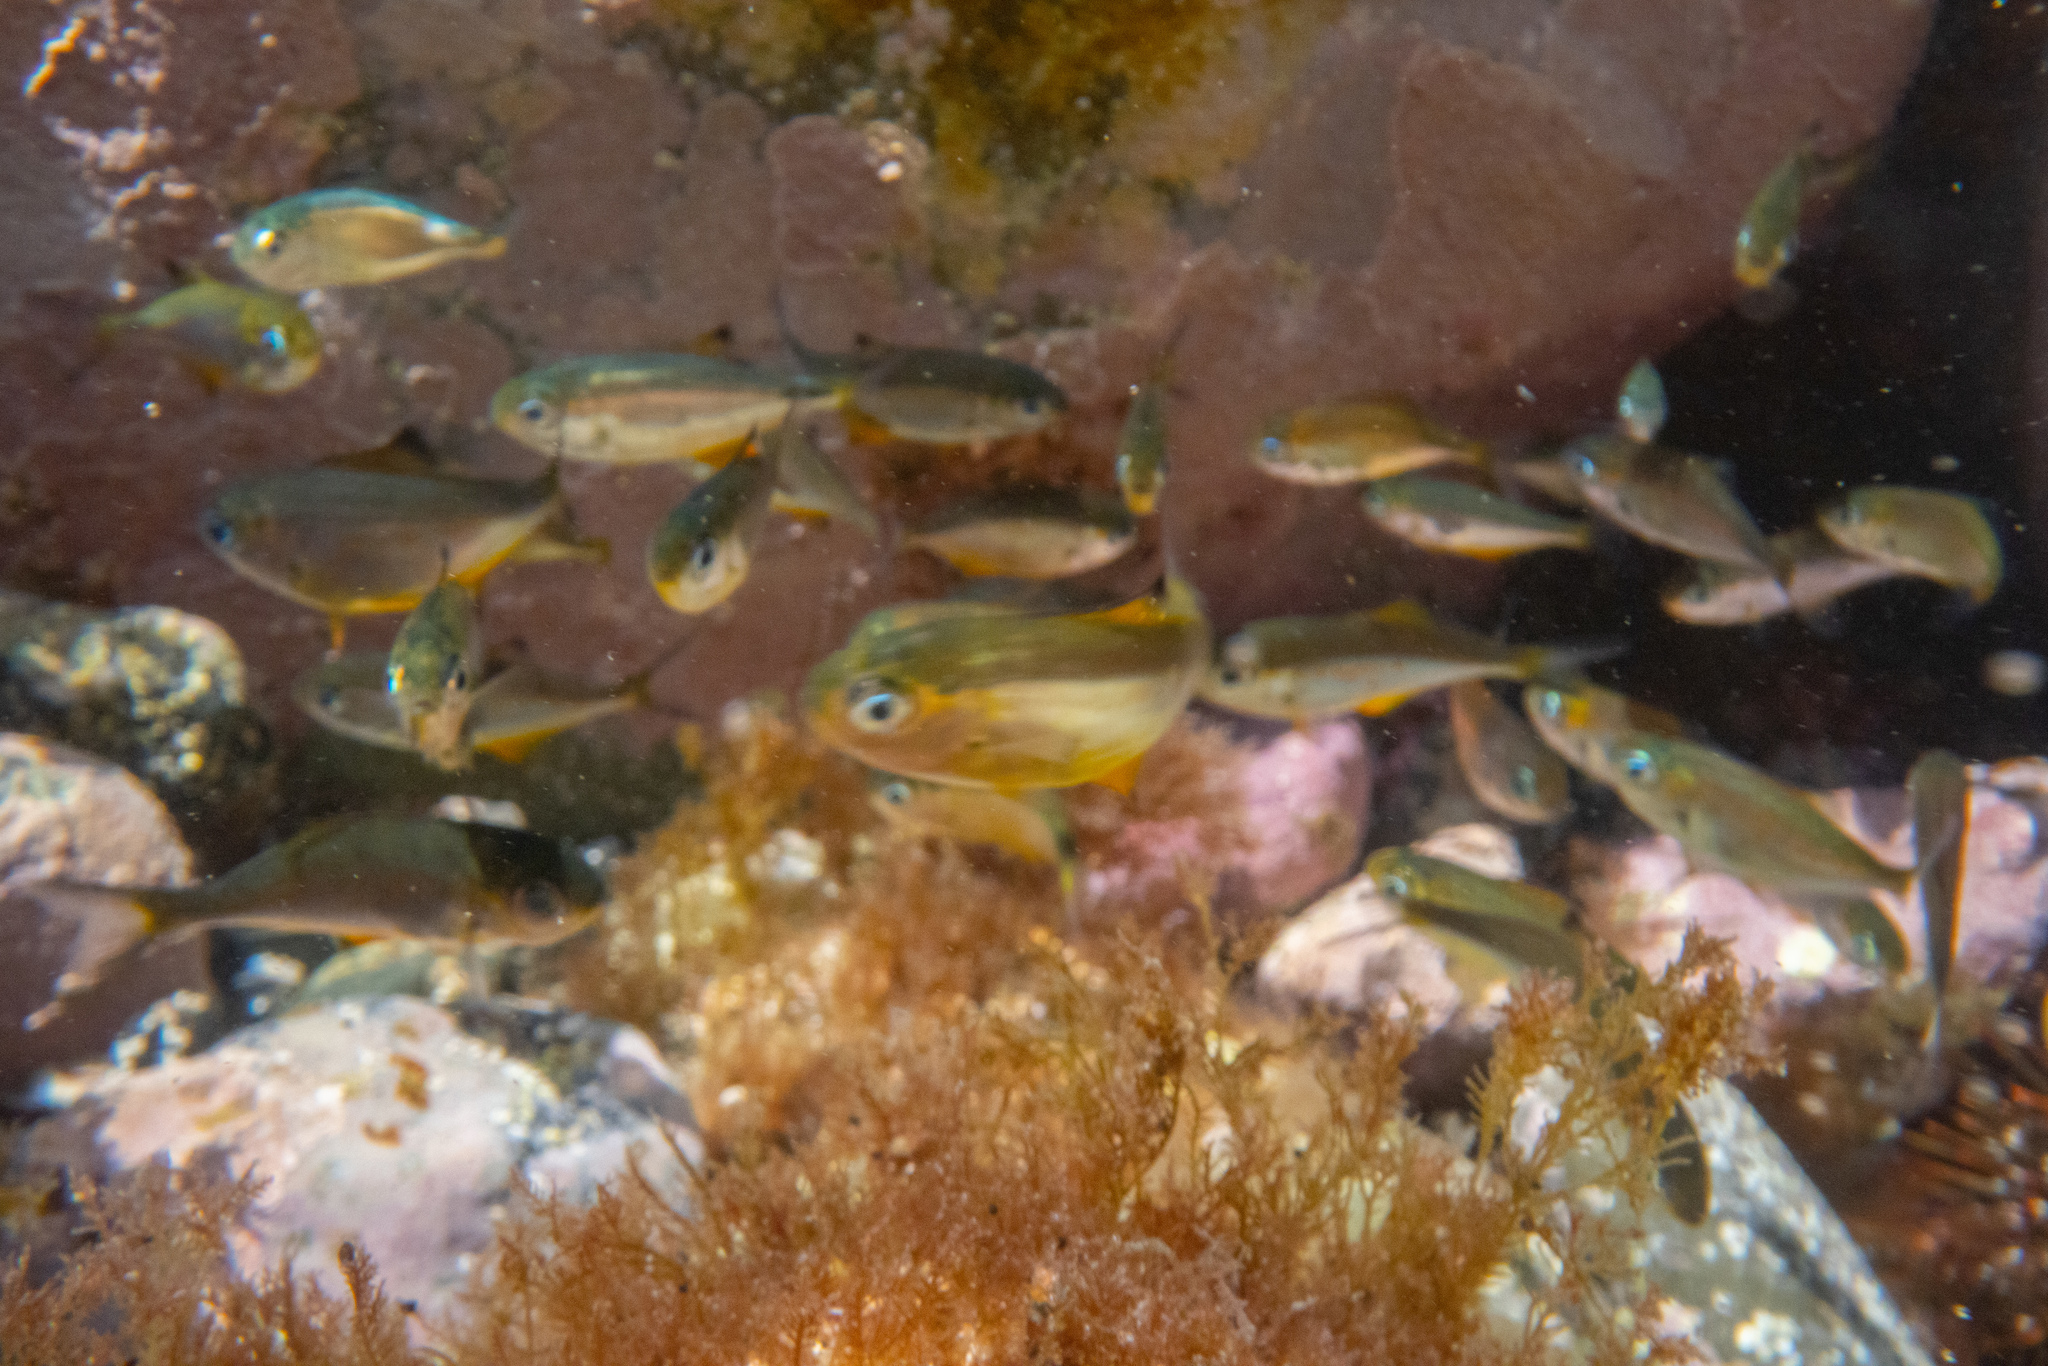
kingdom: Animalia
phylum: Chordata
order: Perciformes
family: Kyphosidae
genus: Scorpis
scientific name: Scorpis violacea
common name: Blue maomao
